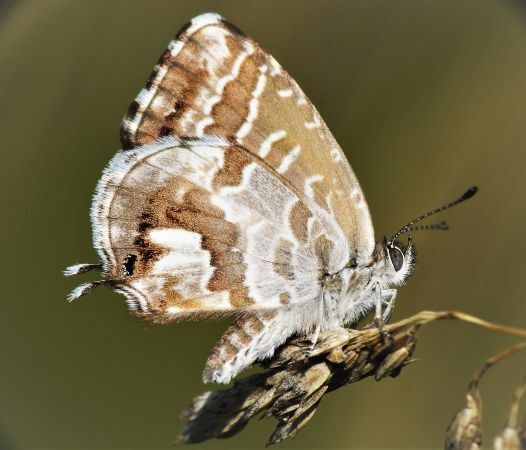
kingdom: Animalia
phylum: Arthropoda
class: Insecta
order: Lepidoptera
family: Lycaenidae
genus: Cacyreus
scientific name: Cacyreus marshalli
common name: Geranium bronze
